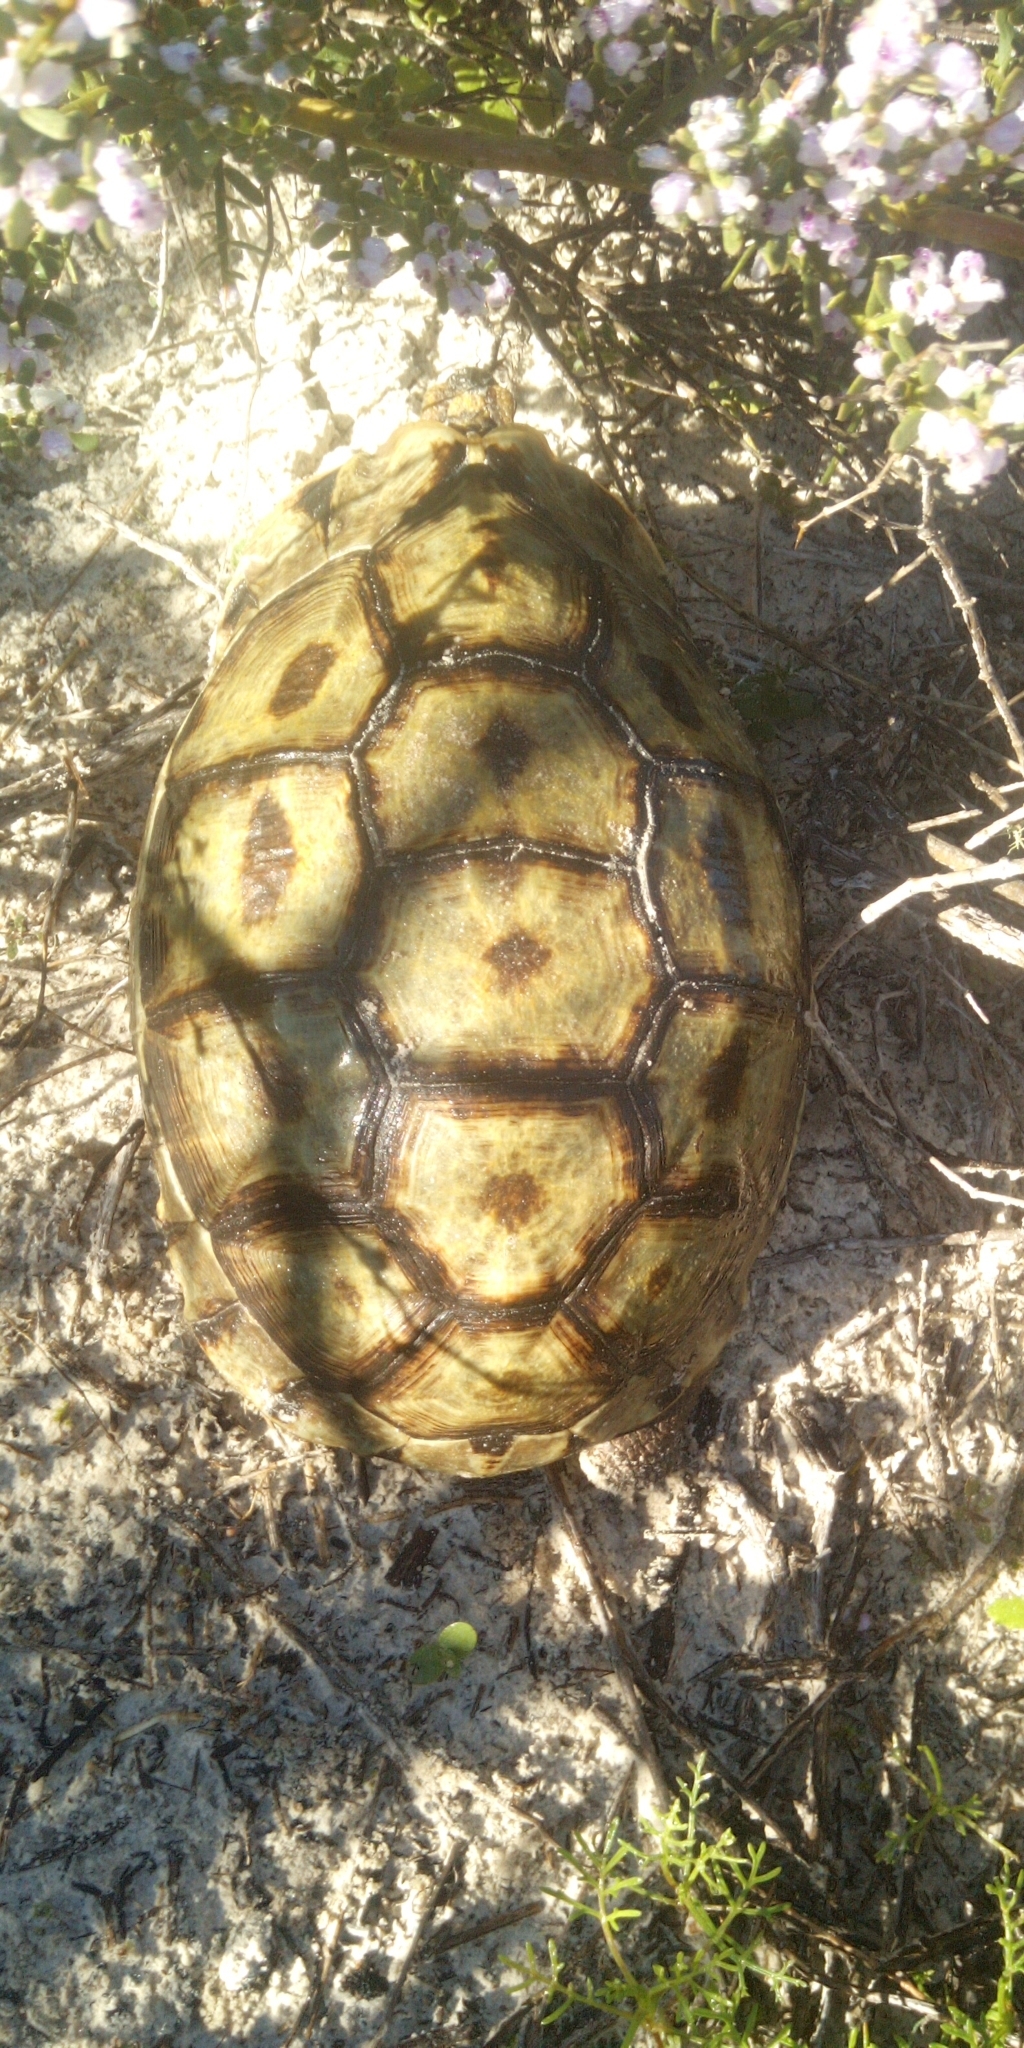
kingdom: Animalia
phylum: Chordata
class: Testudines
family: Testudinidae
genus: Chersina
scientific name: Chersina angulata
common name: South african bowsprit tortoise
